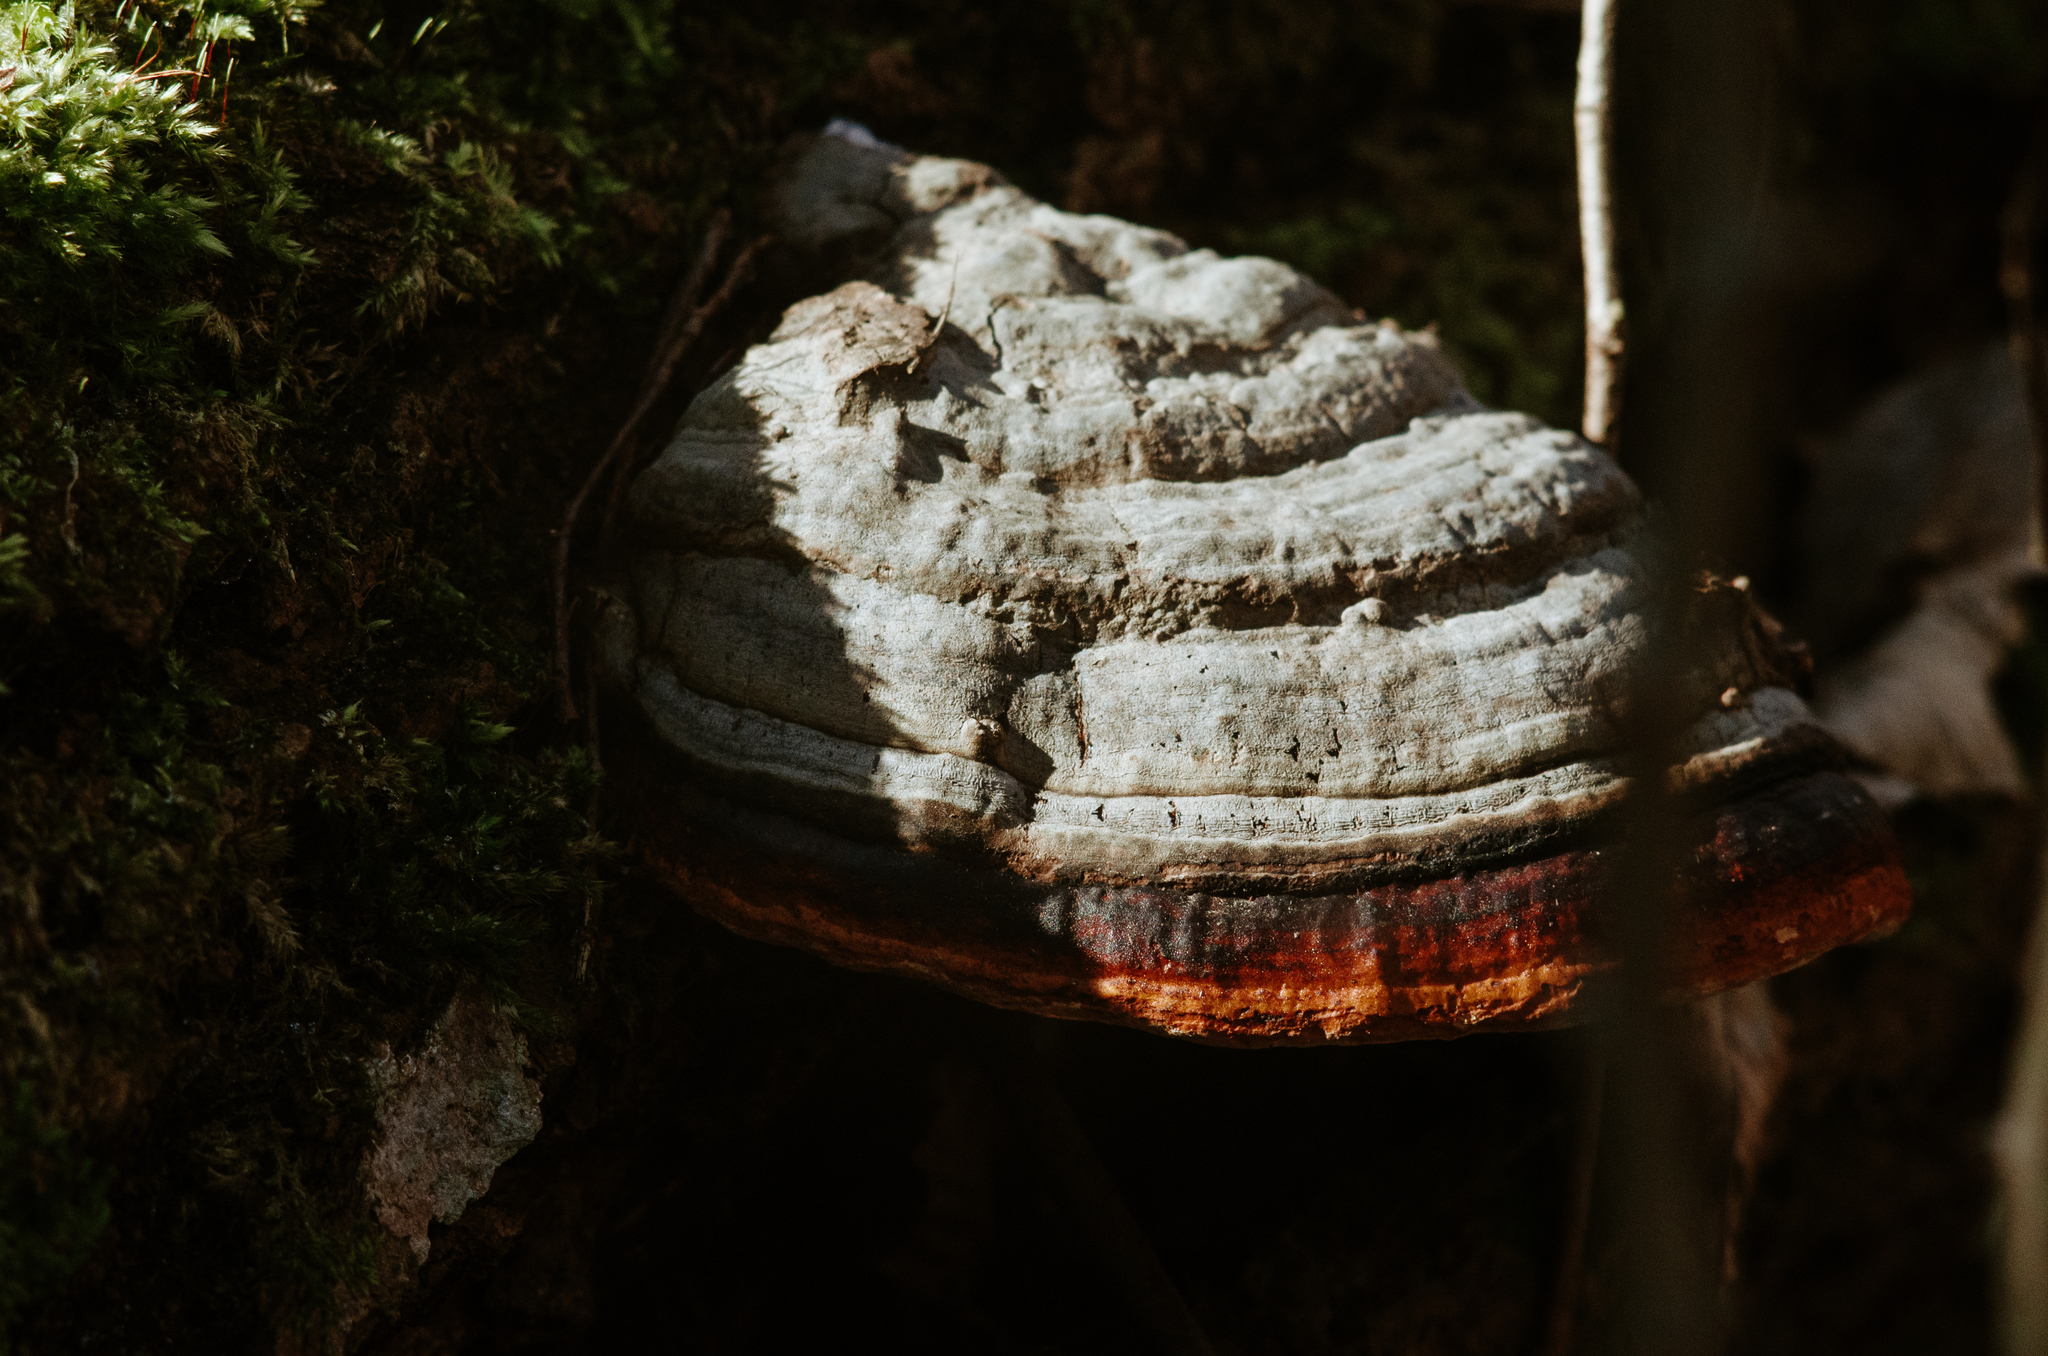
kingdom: Fungi
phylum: Basidiomycota
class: Agaricomycetes
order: Polyporales
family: Fomitopsidaceae
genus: Fomitopsis
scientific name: Fomitopsis pinicola
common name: Red-belted bracket
